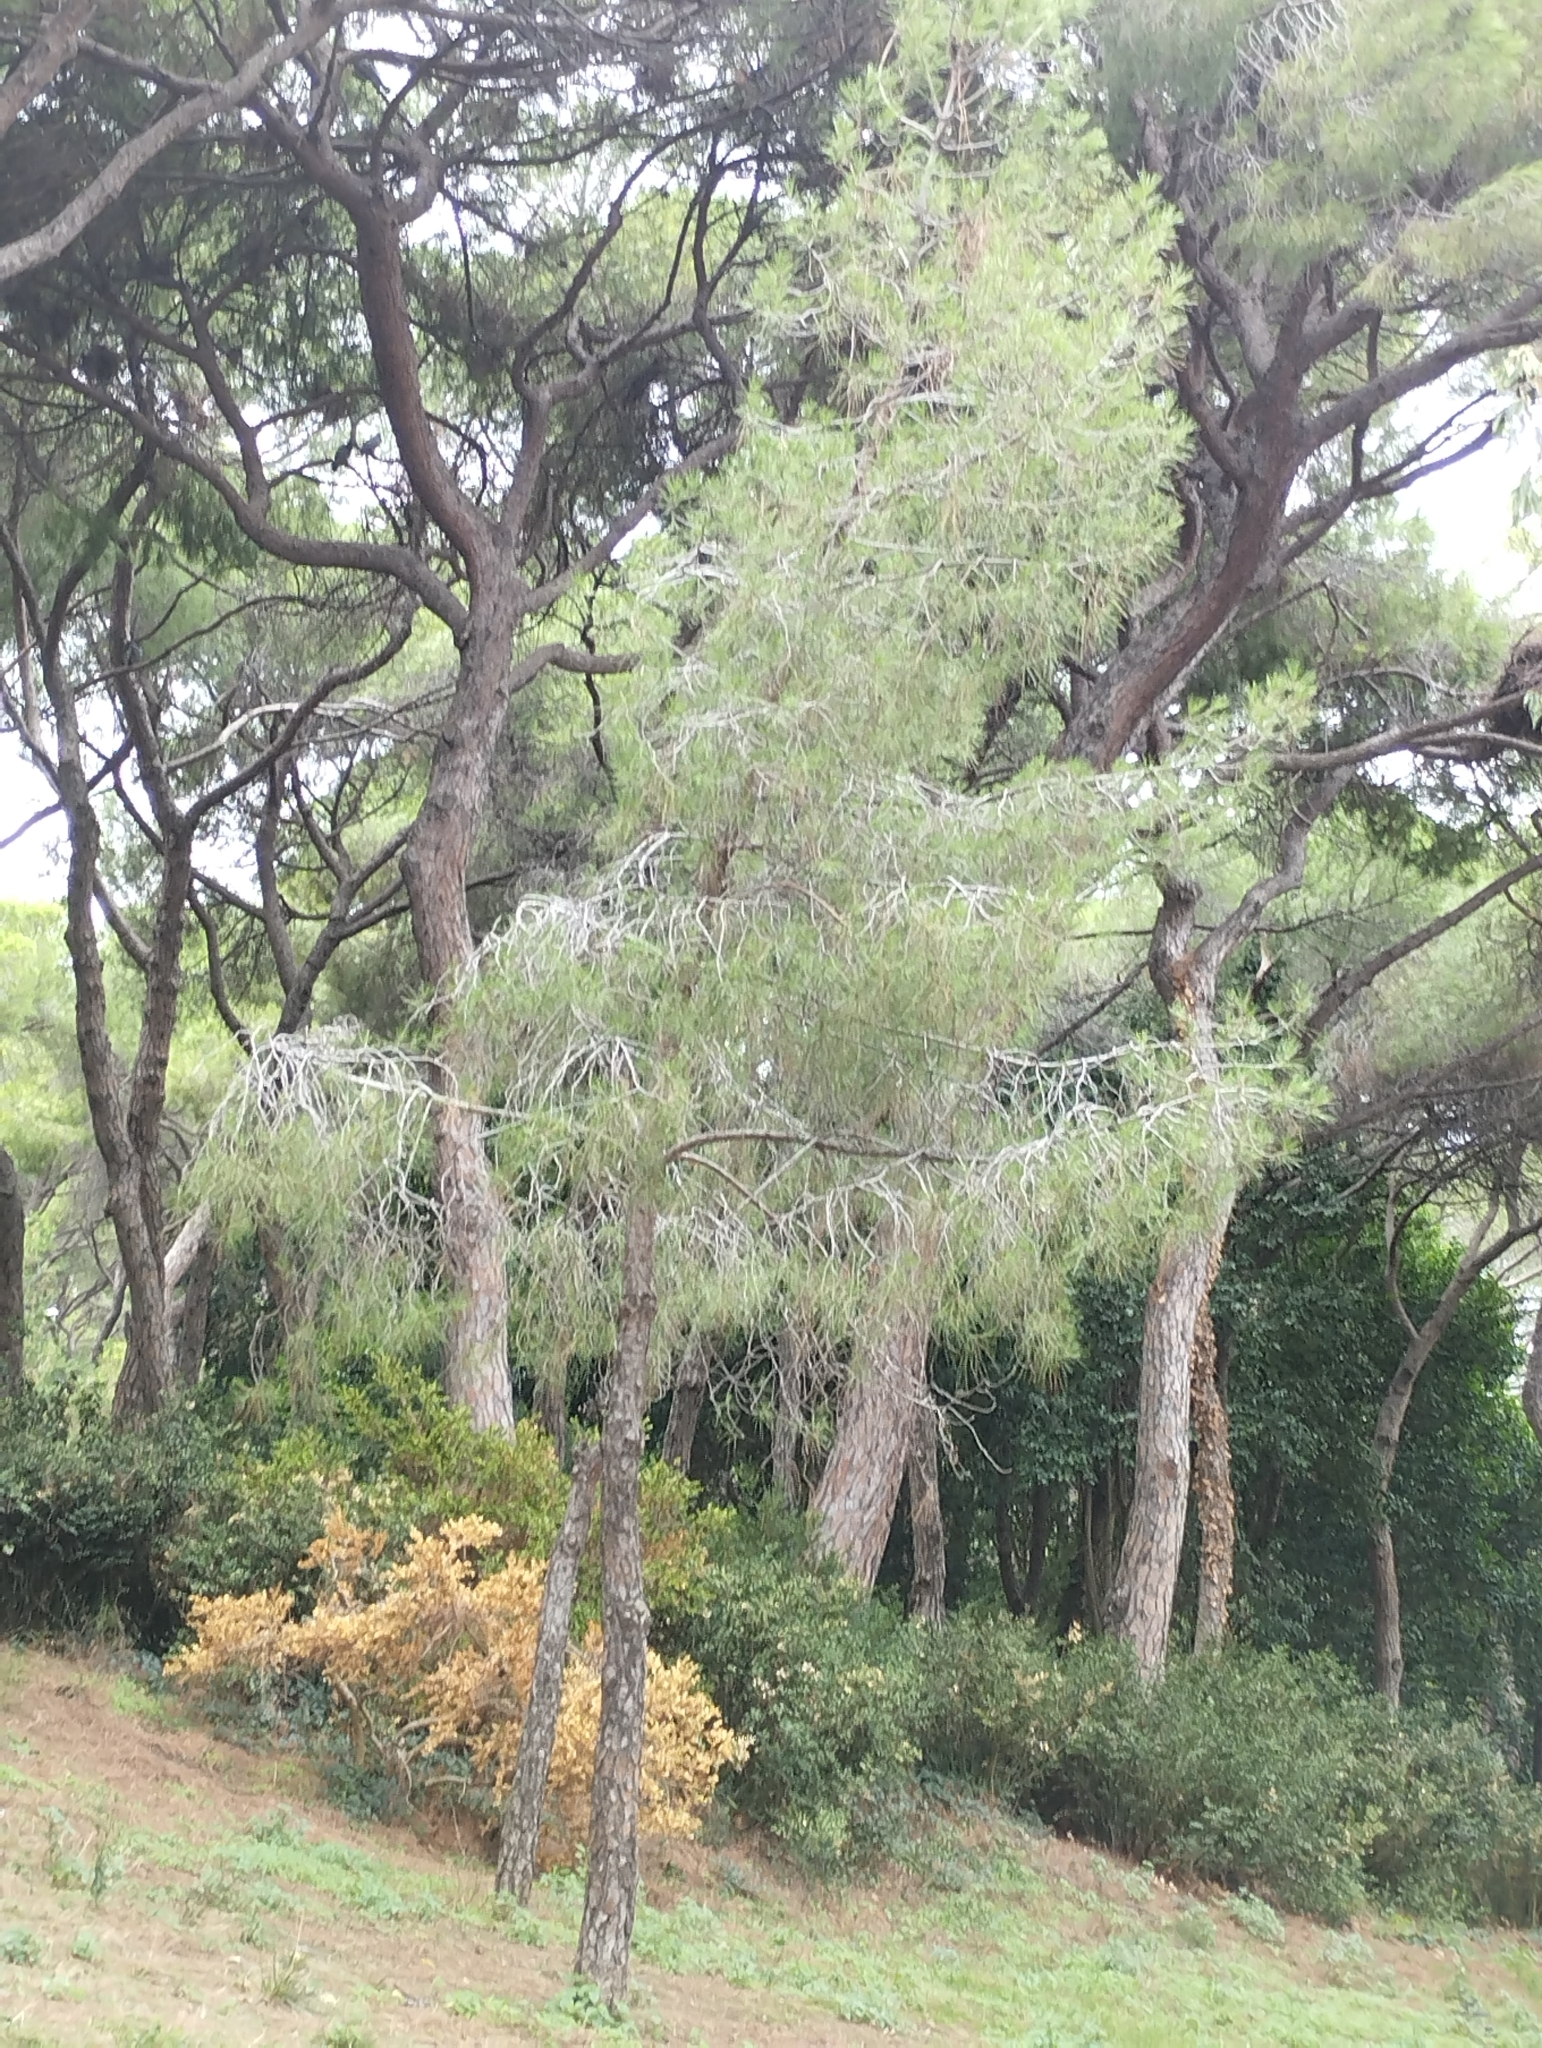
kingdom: Plantae
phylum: Tracheophyta
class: Pinopsida
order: Pinales
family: Pinaceae
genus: Pinus
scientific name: Pinus halepensis
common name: Aleppo pine
